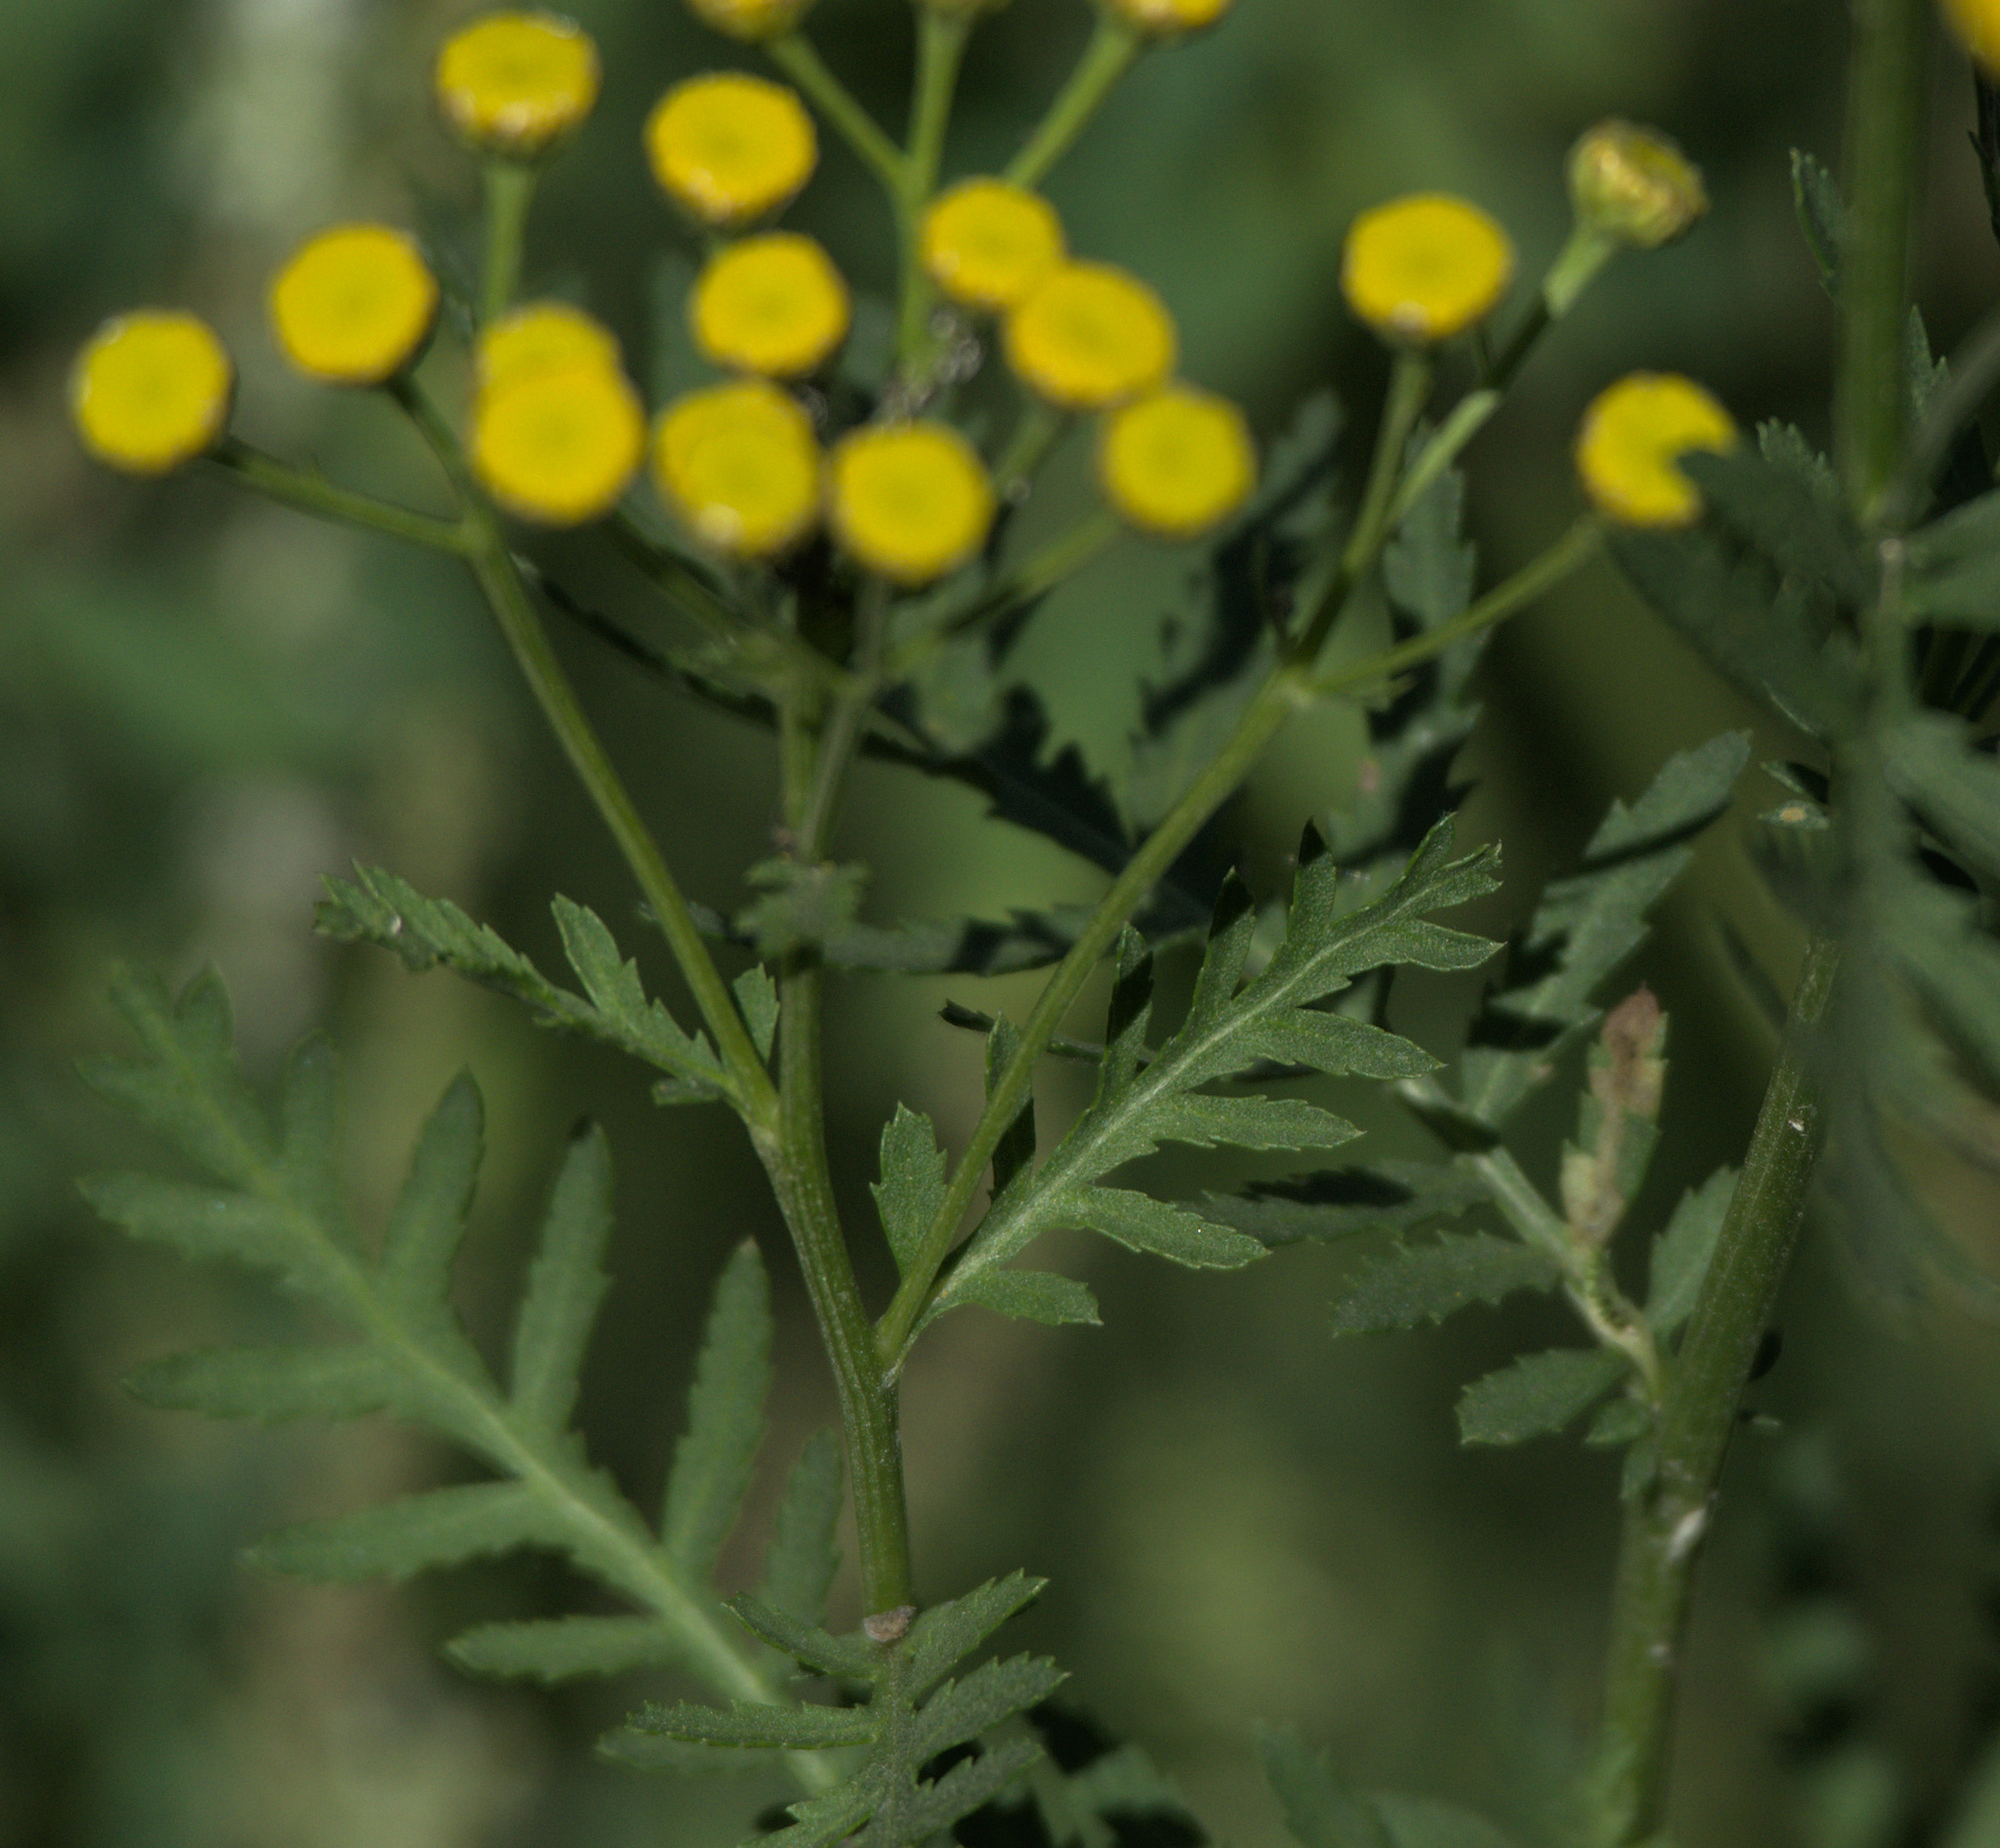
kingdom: Plantae
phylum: Tracheophyta
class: Magnoliopsida
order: Asterales
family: Asteraceae
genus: Tanacetum
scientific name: Tanacetum vulgare
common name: Common tansy
